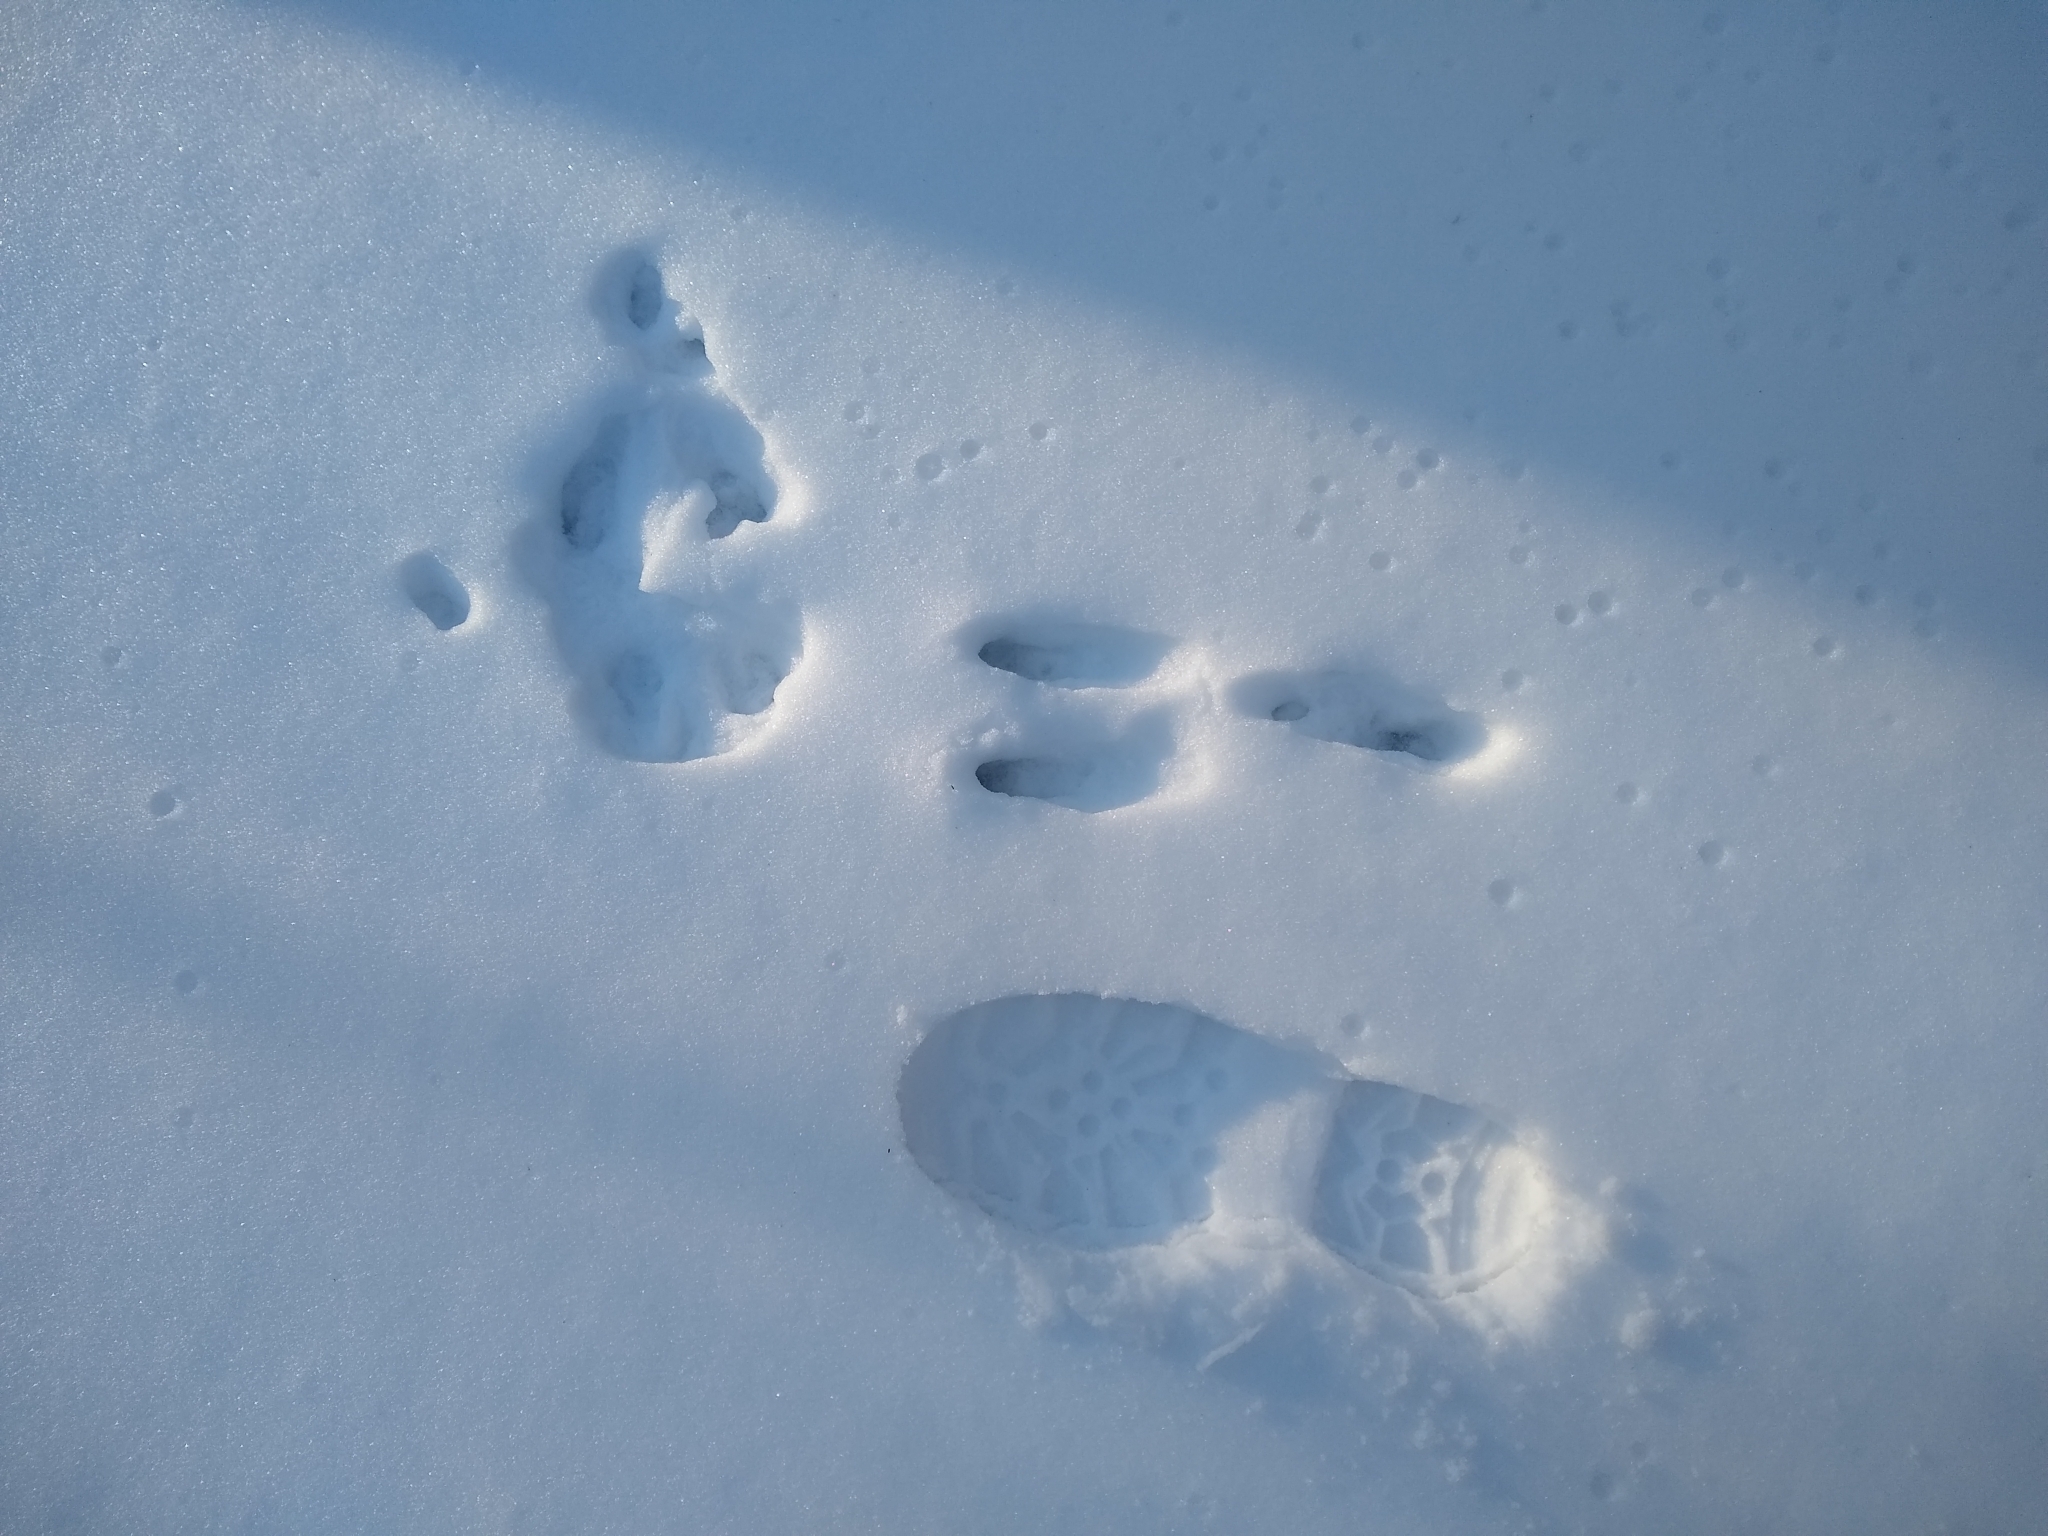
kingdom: Animalia
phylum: Chordata
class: Mammalia
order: Lagomorpha
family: Leporidae
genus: Sylvilagus
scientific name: Sylvilagus floridanus
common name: Eastern cottontail
